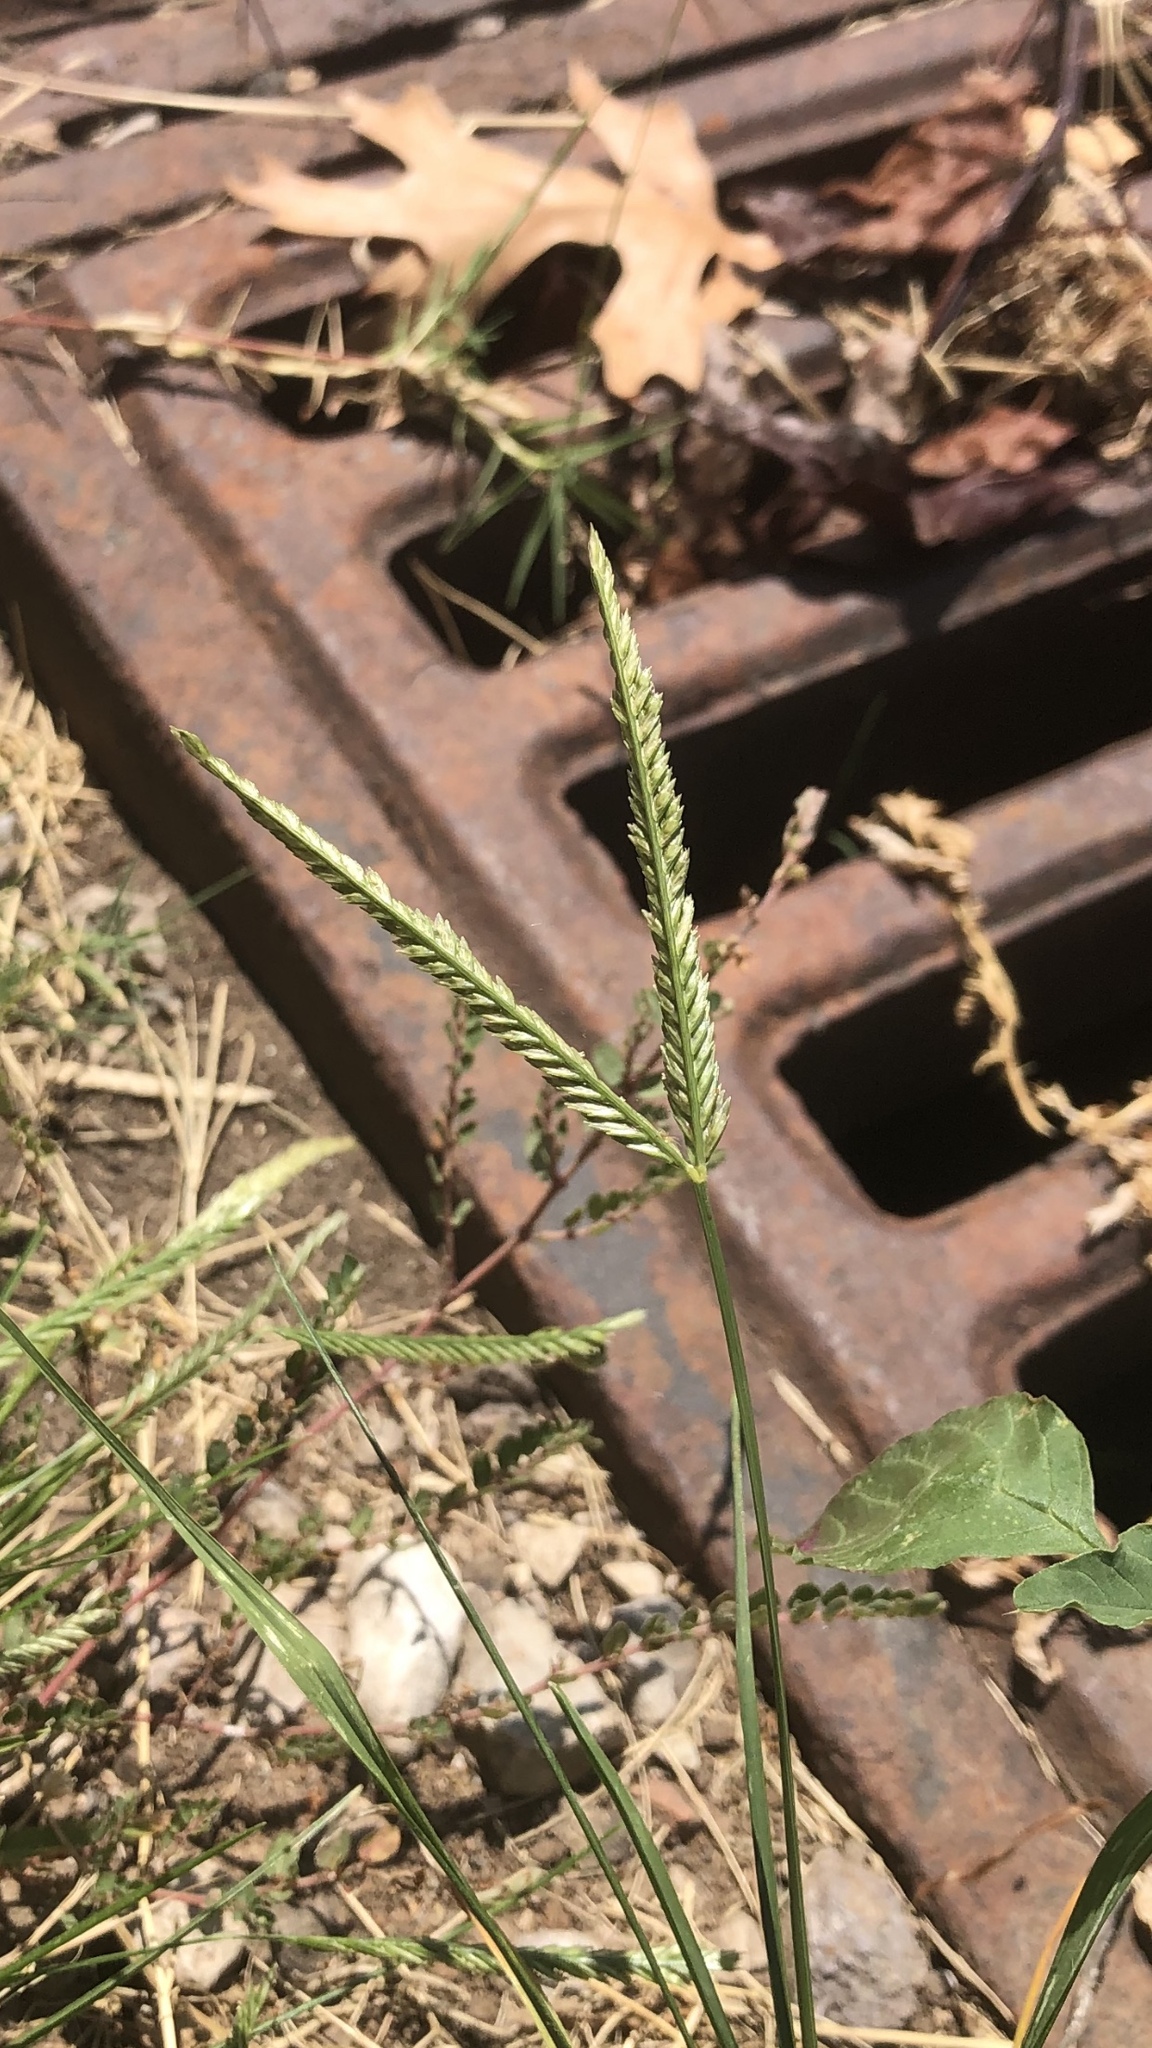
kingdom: Plantae
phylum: Tracheophyta
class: Liliopsida
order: Poales
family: Poaceae
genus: Eleusine
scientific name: Eleusine indica
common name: Yard-grass
